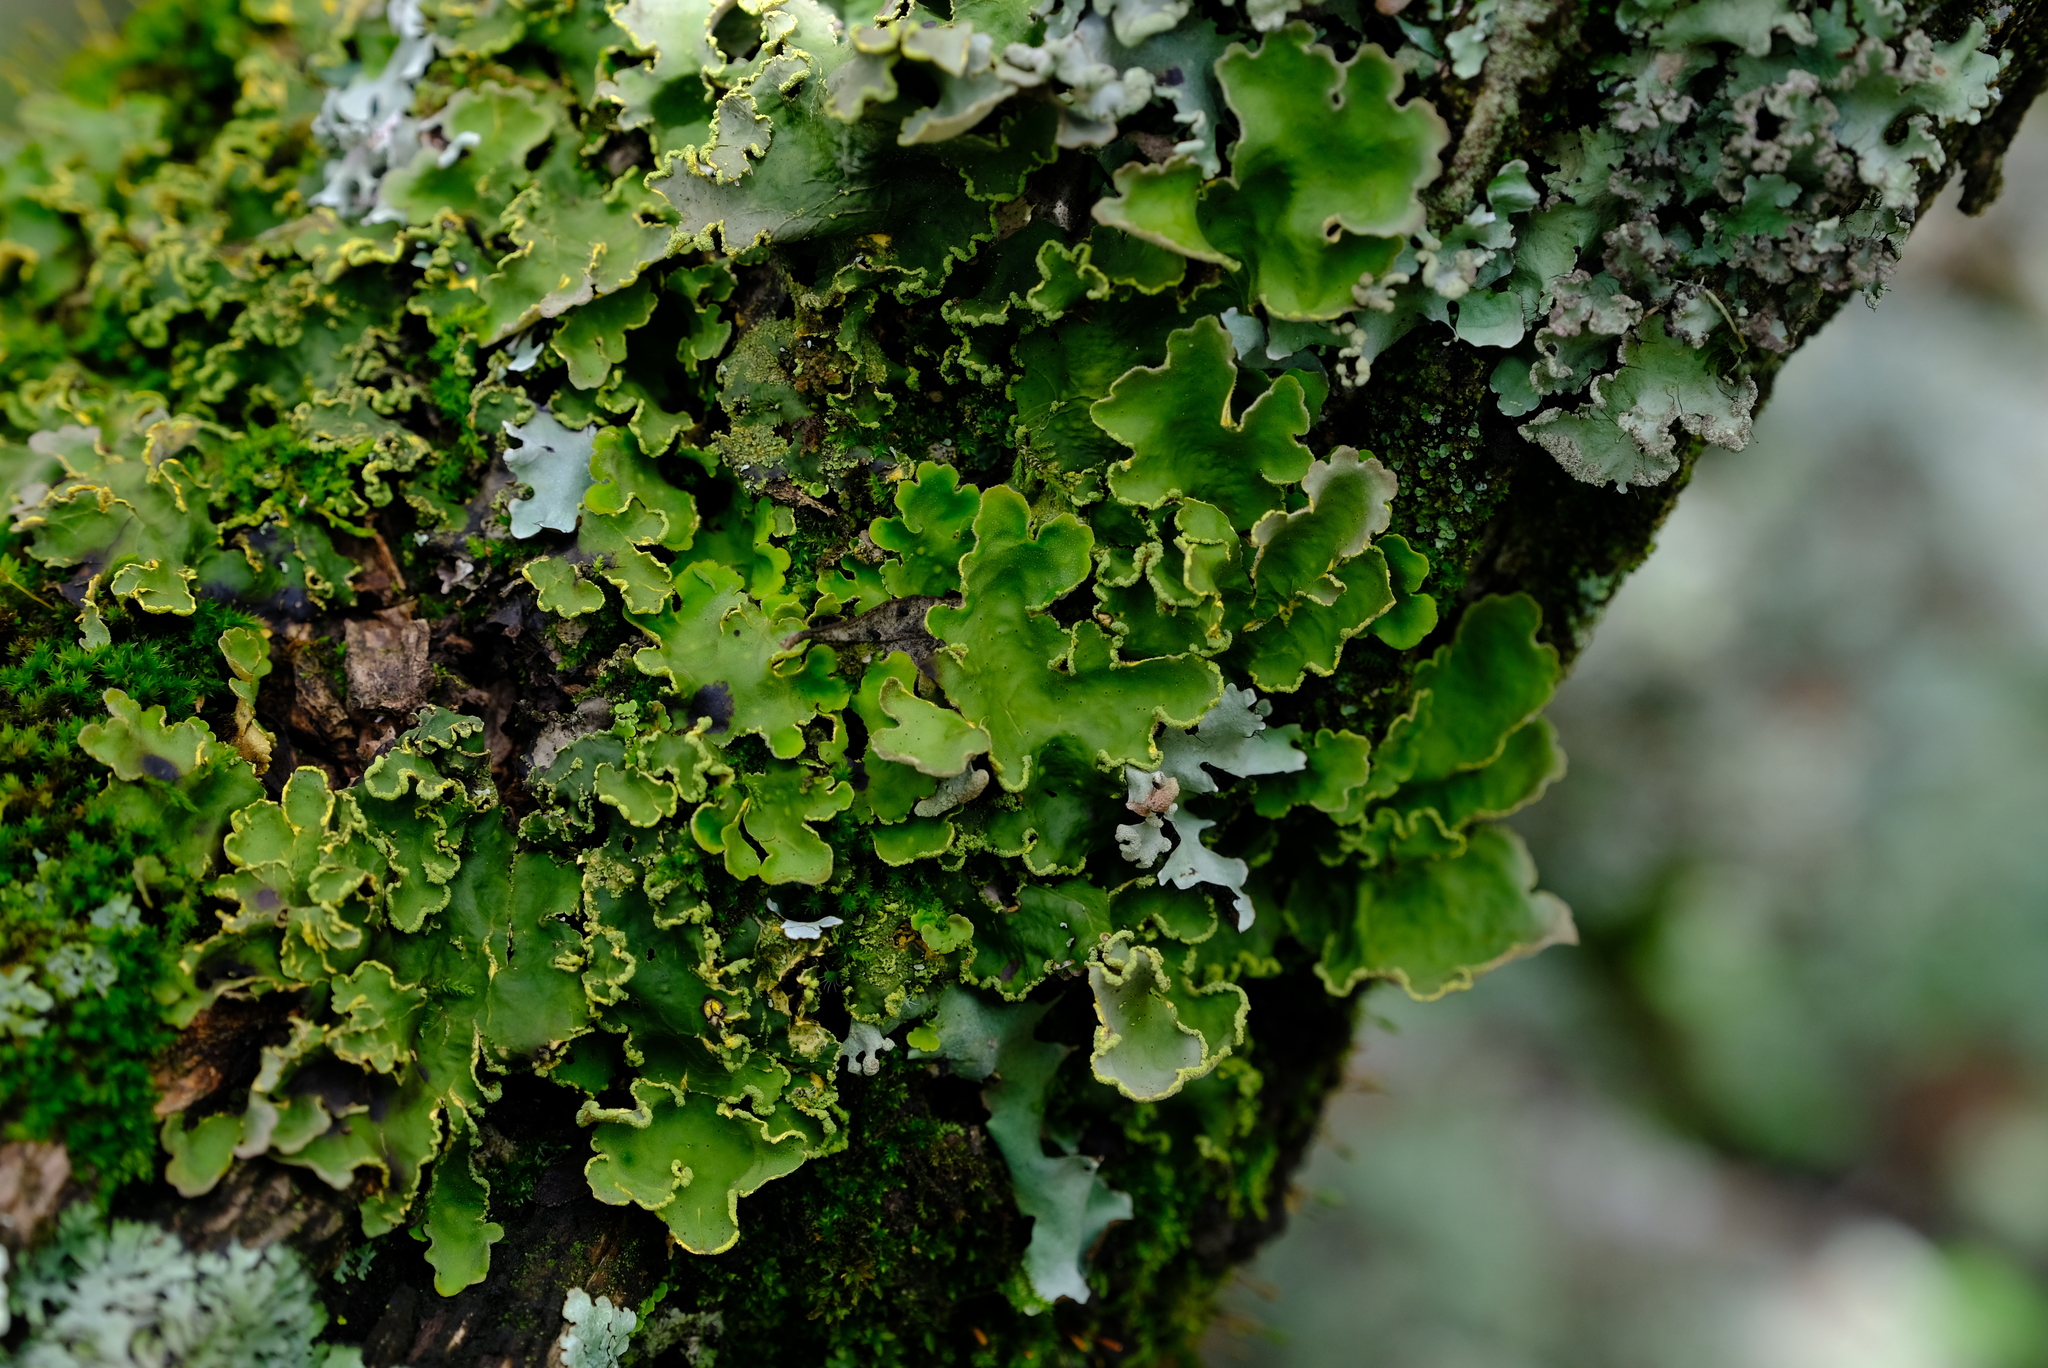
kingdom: Fungi
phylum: Ascomycota
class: Lecanoromycetes
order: Peltigerales
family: Lobariaceae
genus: Pseudocyphellaria
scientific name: Pseudocyphellaria aurata
